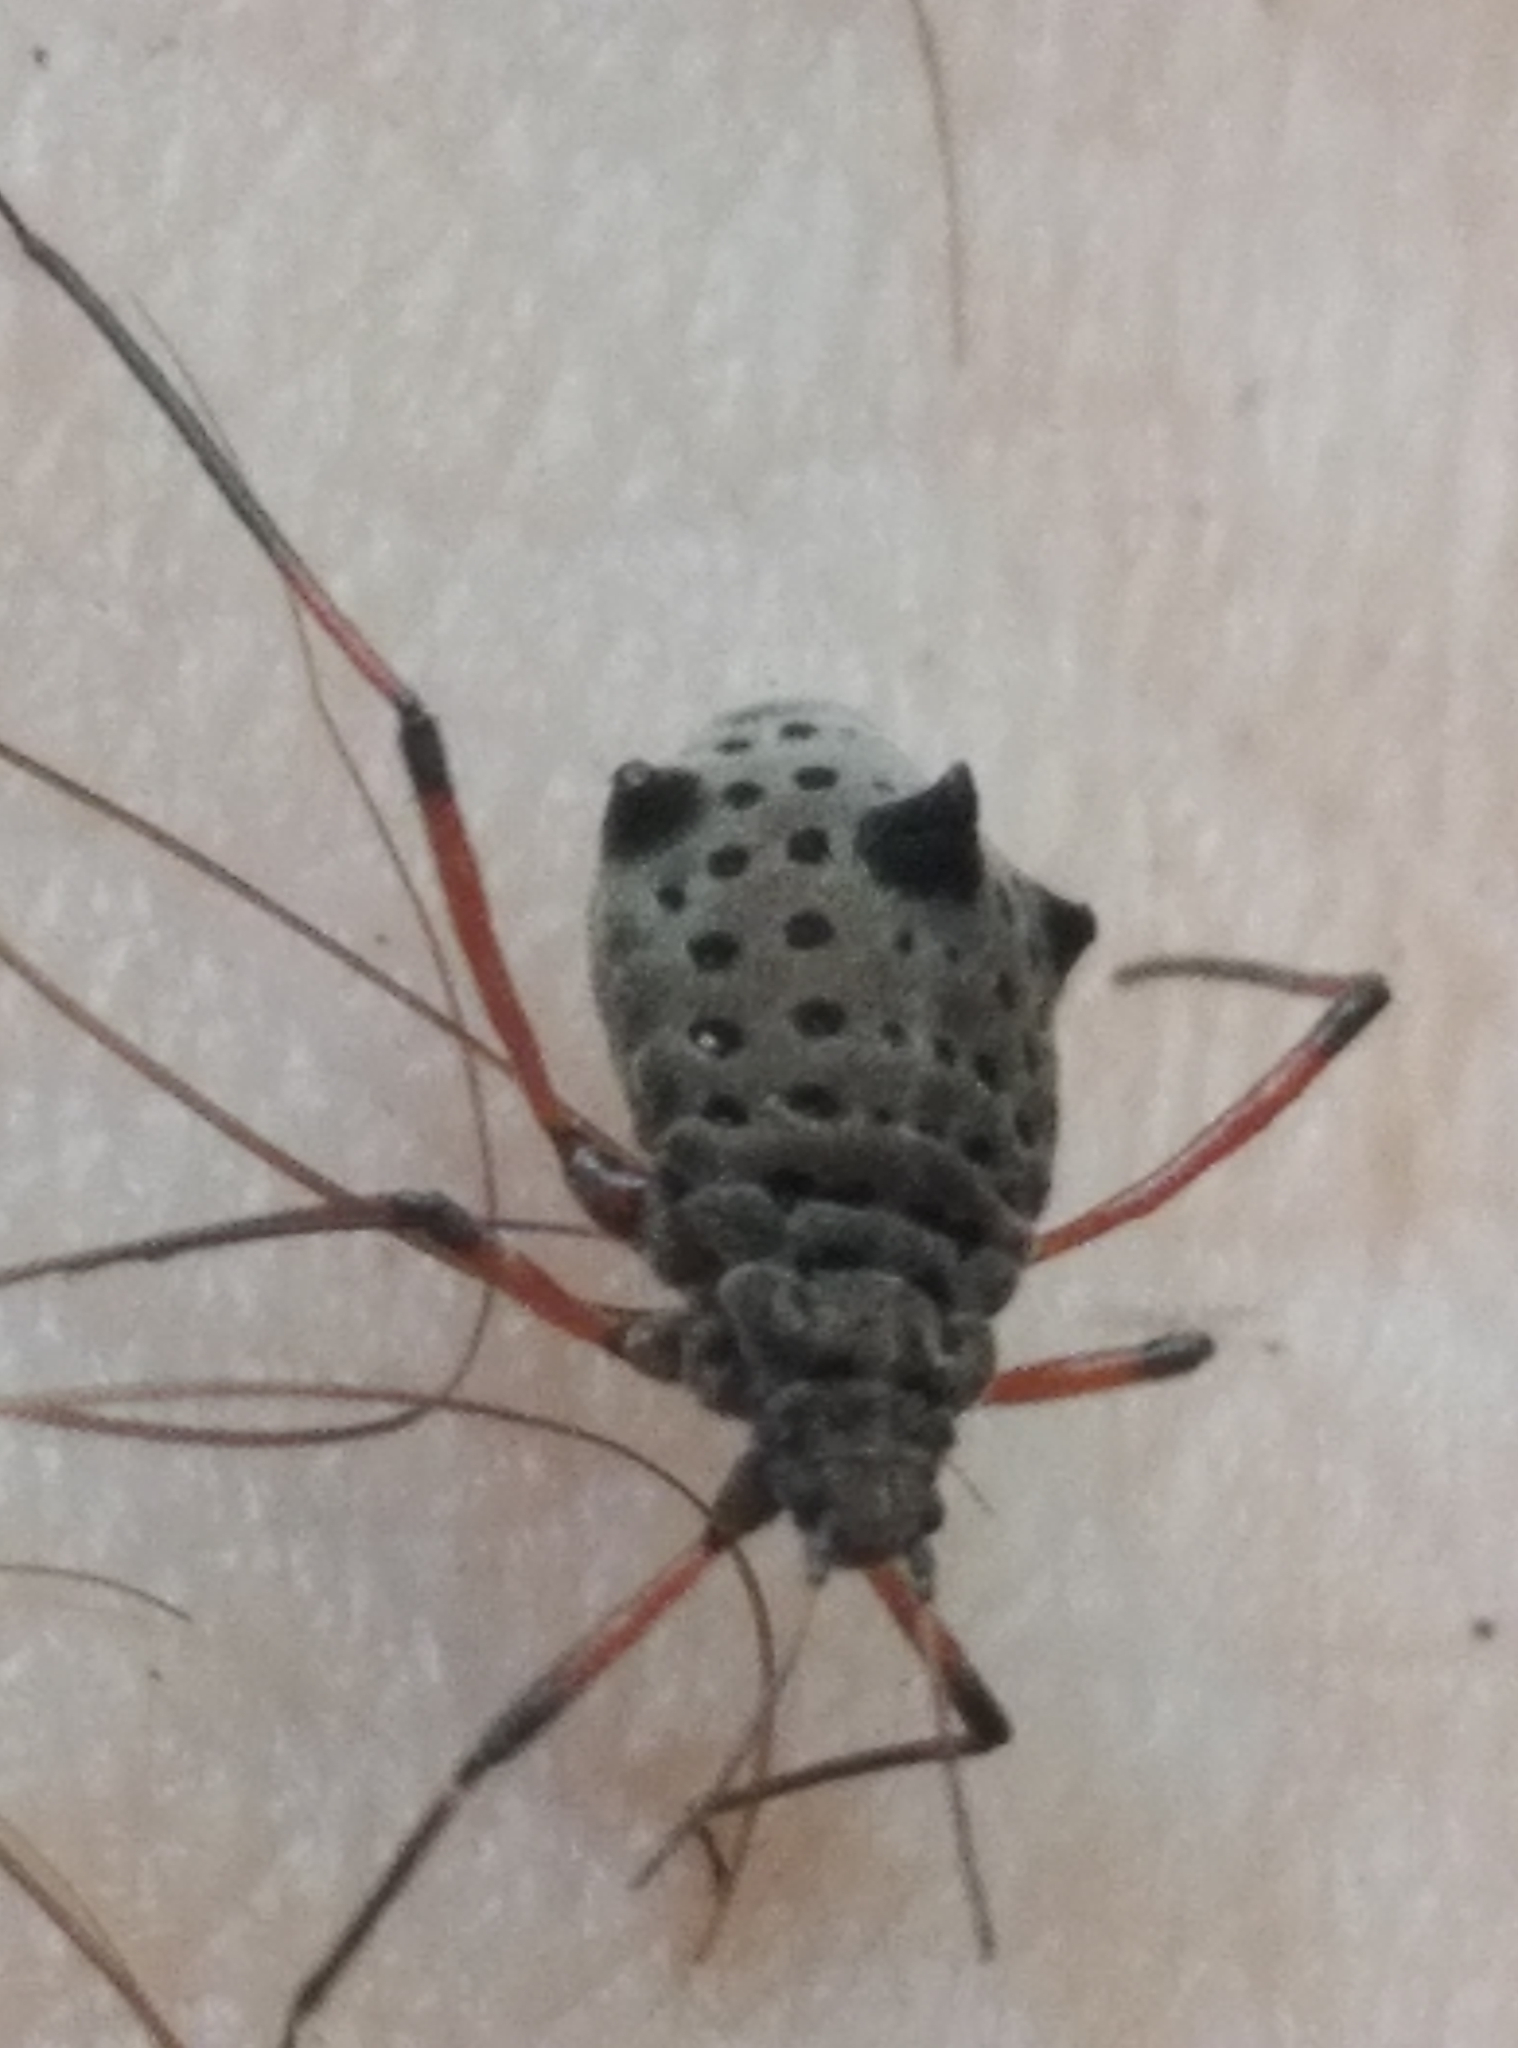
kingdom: Animalia
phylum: Arthropoda
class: Insecta
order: Hemiptera
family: Aphididae
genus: Tuberolachnus
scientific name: Tuberolachnus salignus
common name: Giant willow aphid
